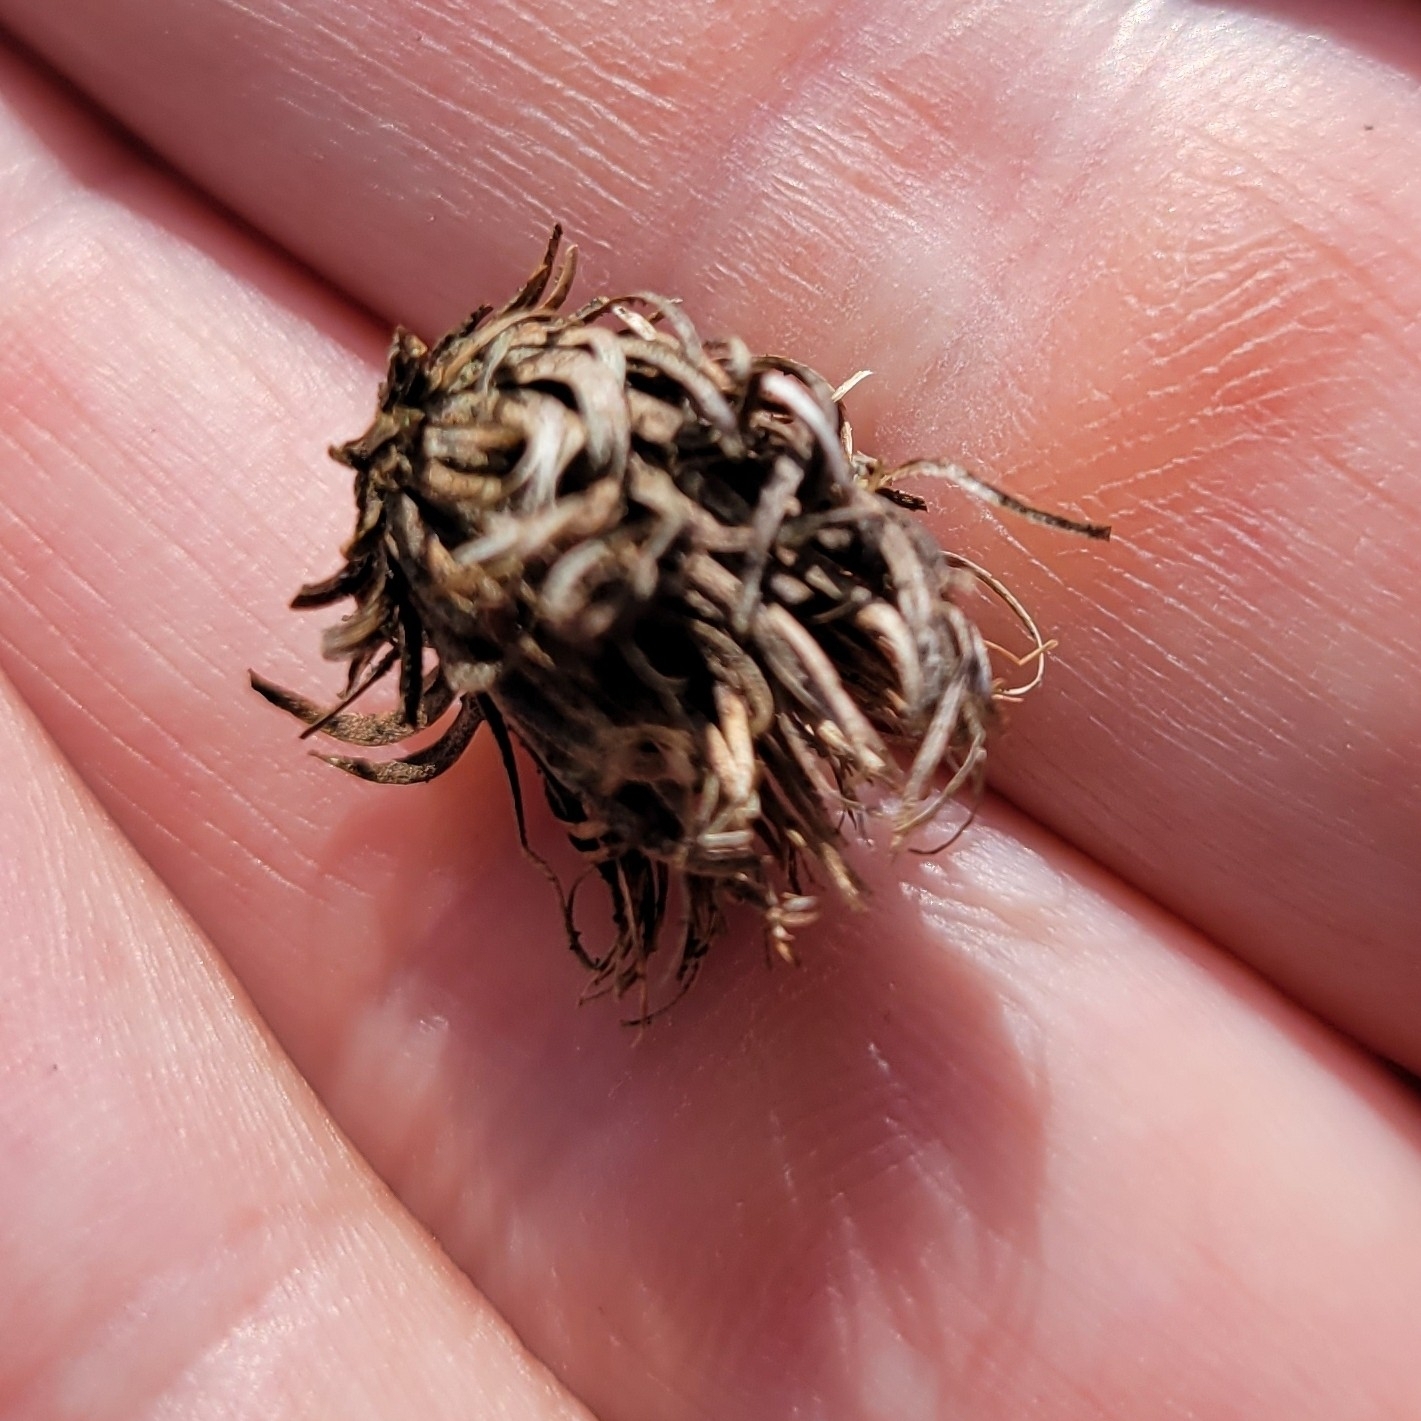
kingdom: Animalia
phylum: Arthropoda
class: Insecta
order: Hymenoptera
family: Cynipidae
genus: Andricus
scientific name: Andricus quercusfoliatus
